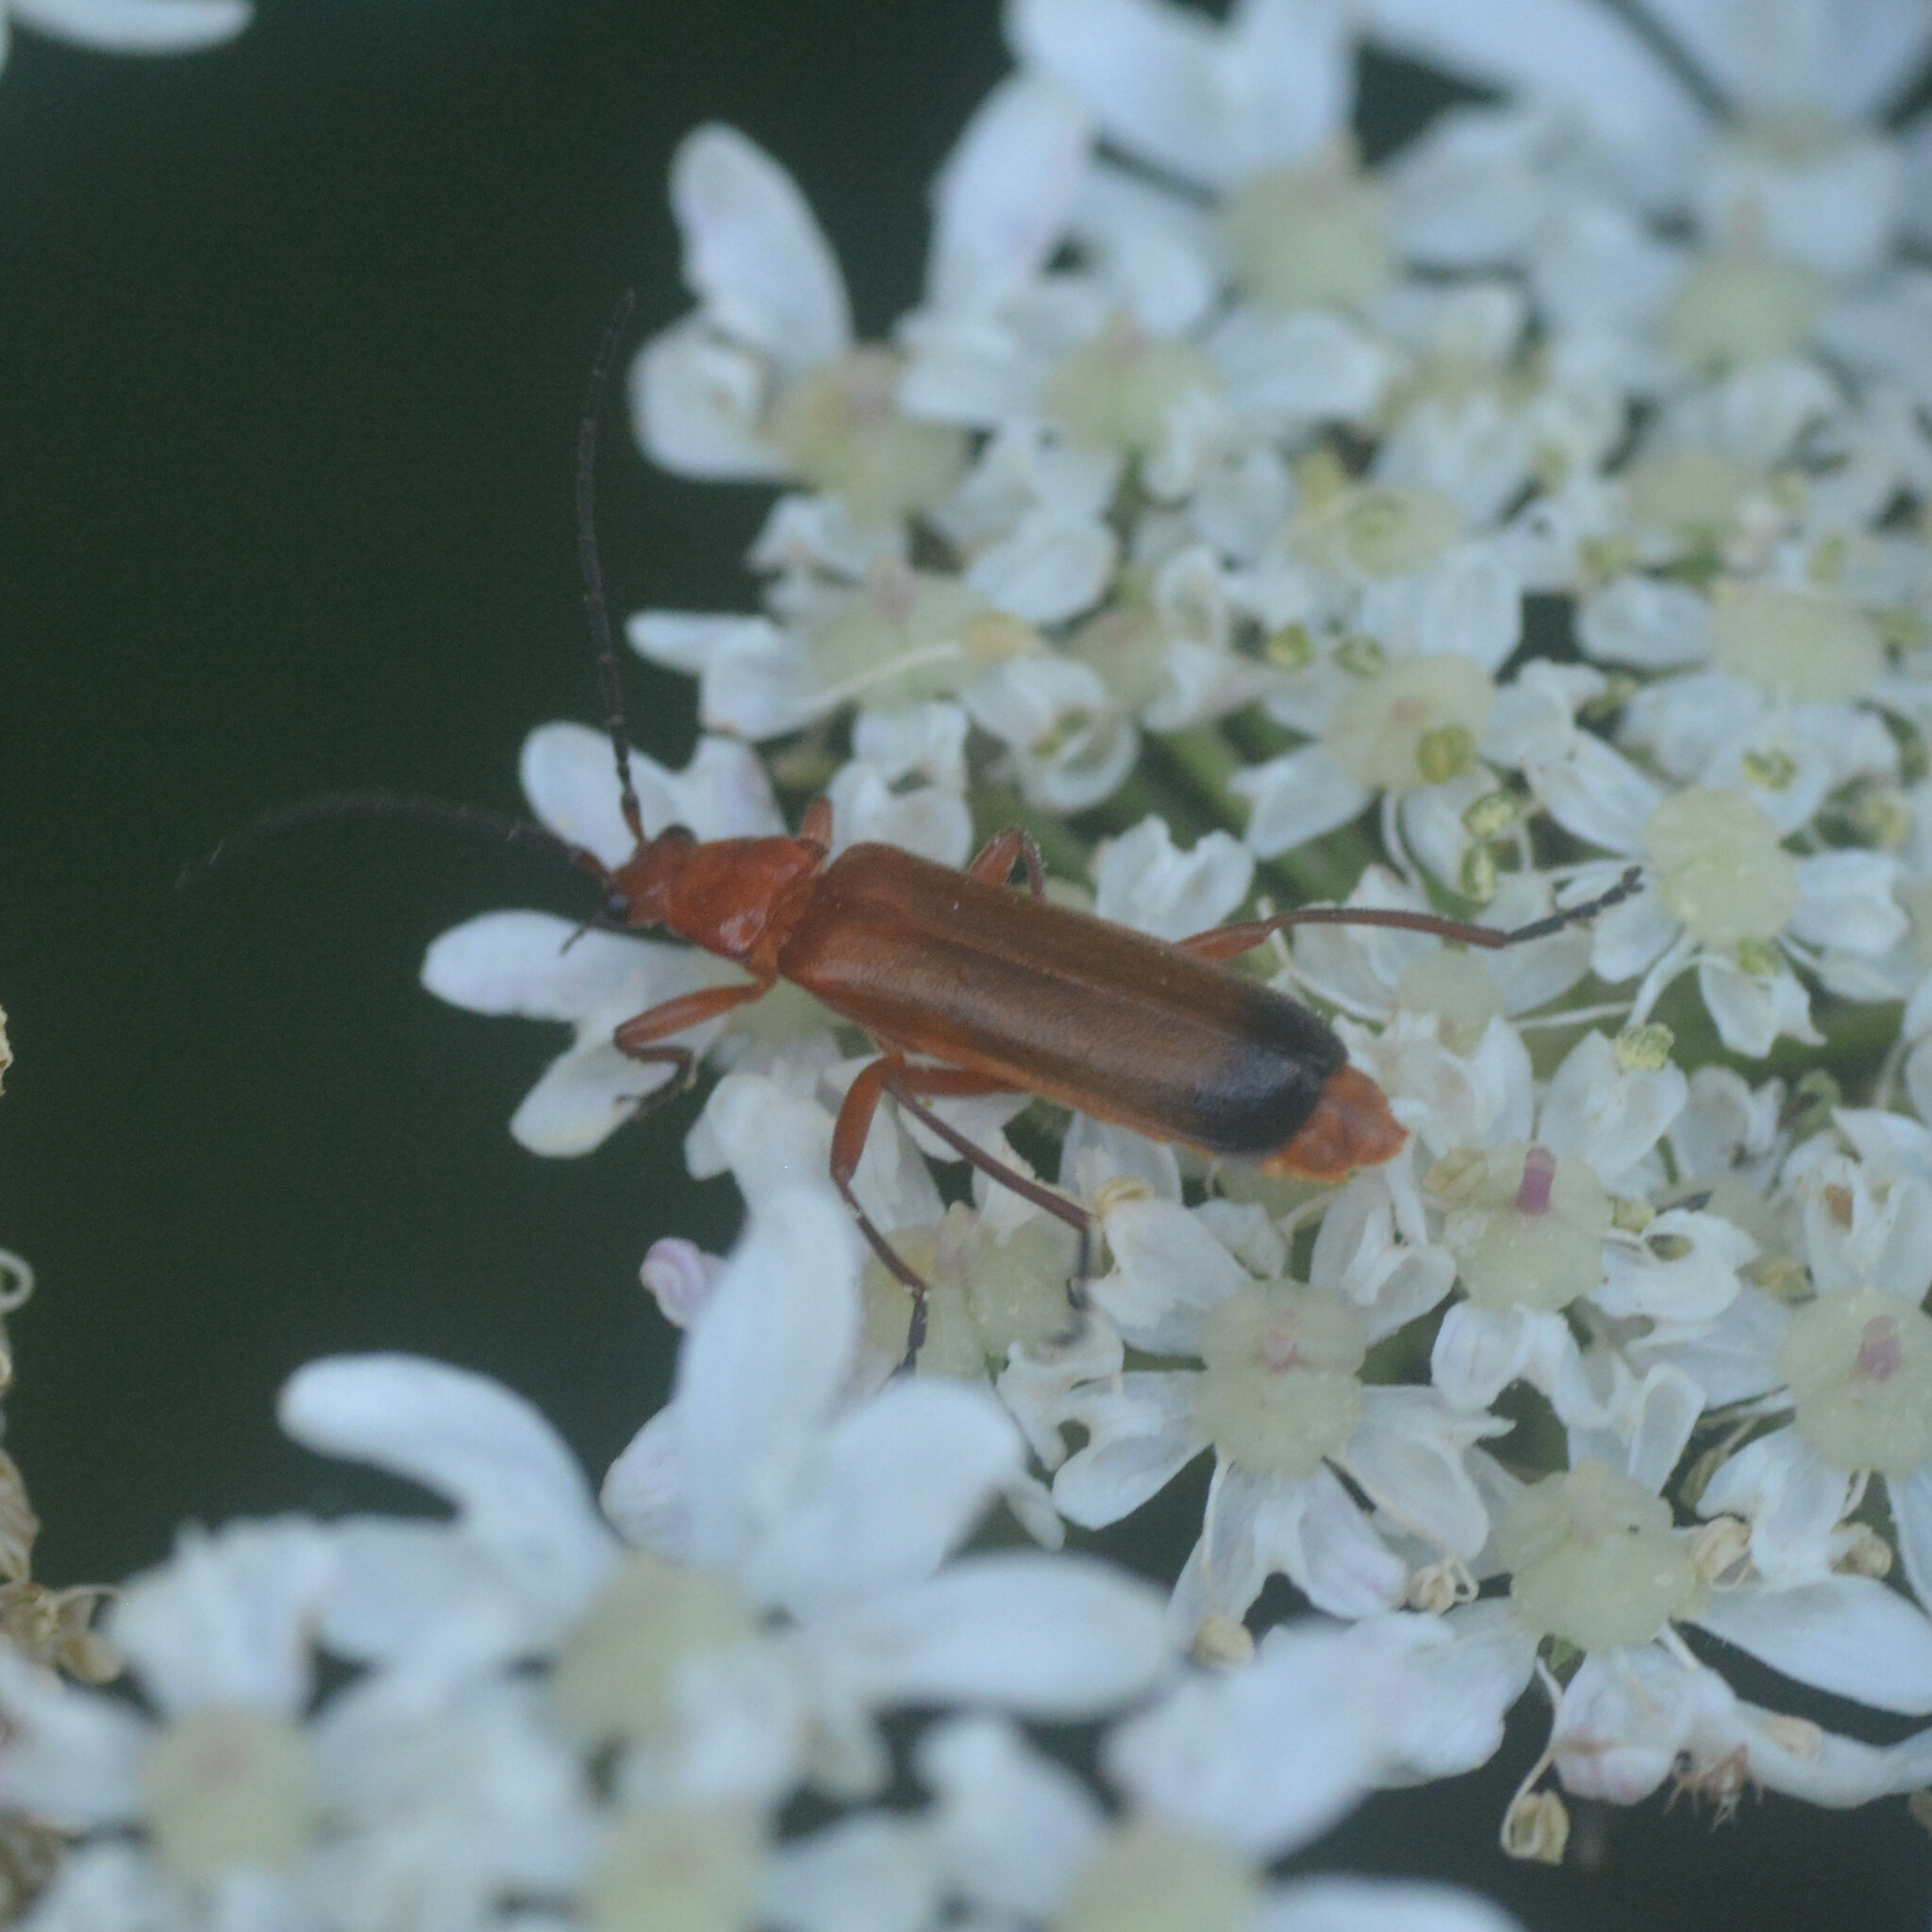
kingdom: Animalia
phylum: Arthropoda
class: Insecta
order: Coleoptera
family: Cantharidae
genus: Rhagonycha
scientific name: Rhagonycha fulva
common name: Common red soldier beetle
